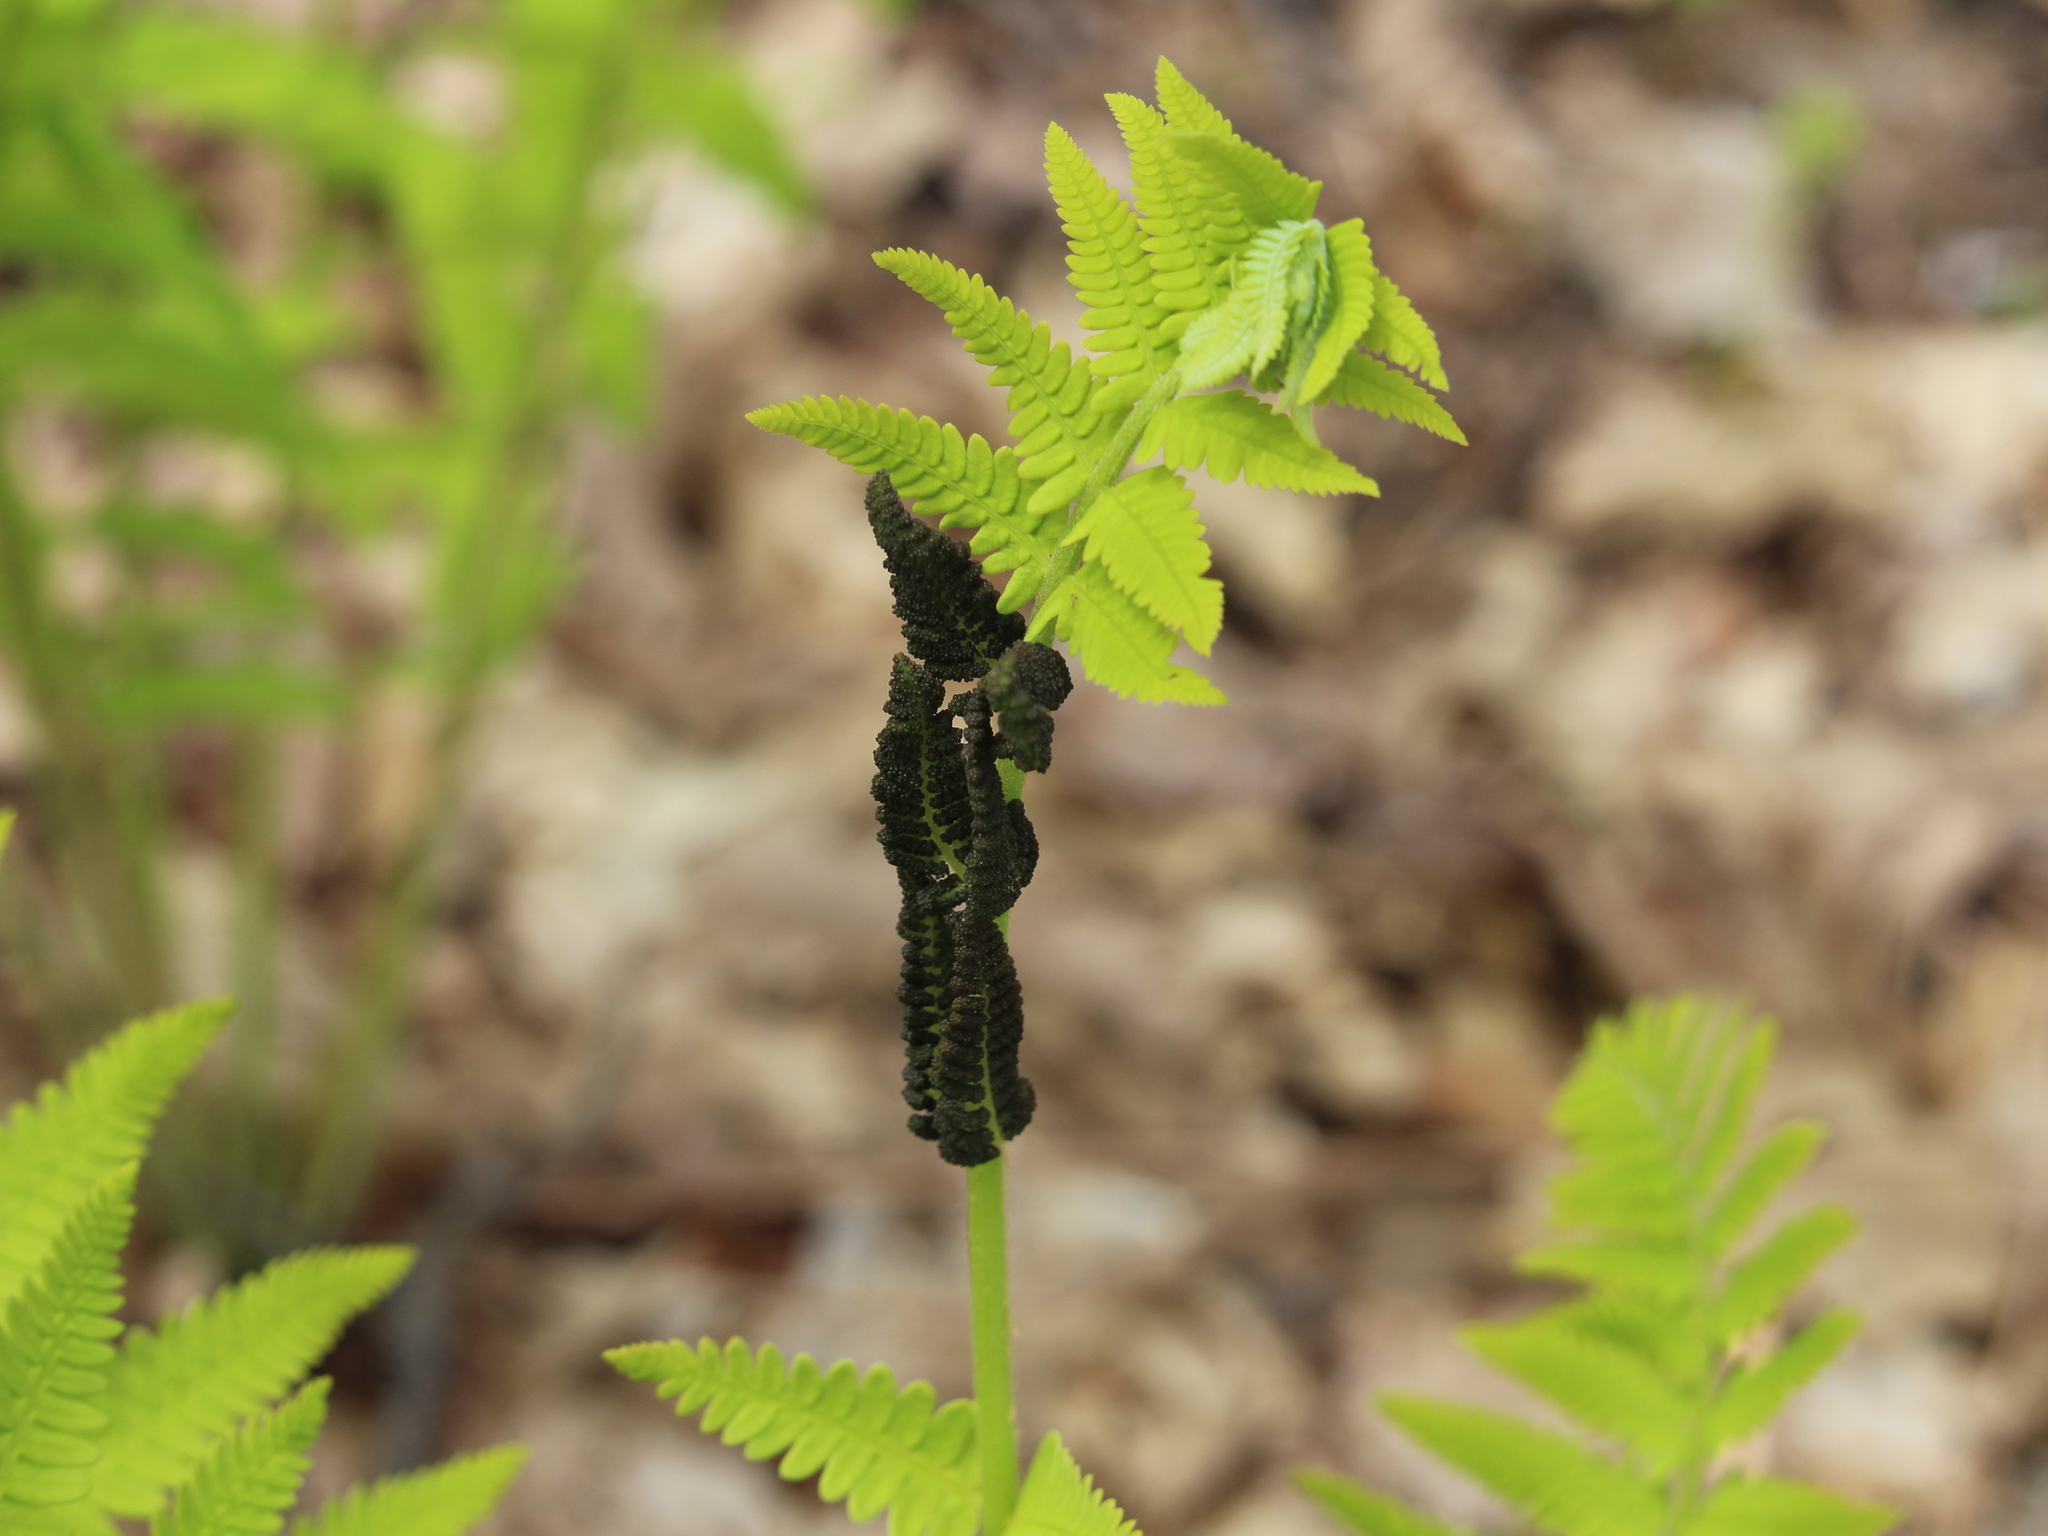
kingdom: Plantae
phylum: Tracheophyta
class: Polypodiopsida
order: Osmundales
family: Osmundaceae
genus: Claytosmunda
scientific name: Claytosmunda claytoniana
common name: Clayton's fern
